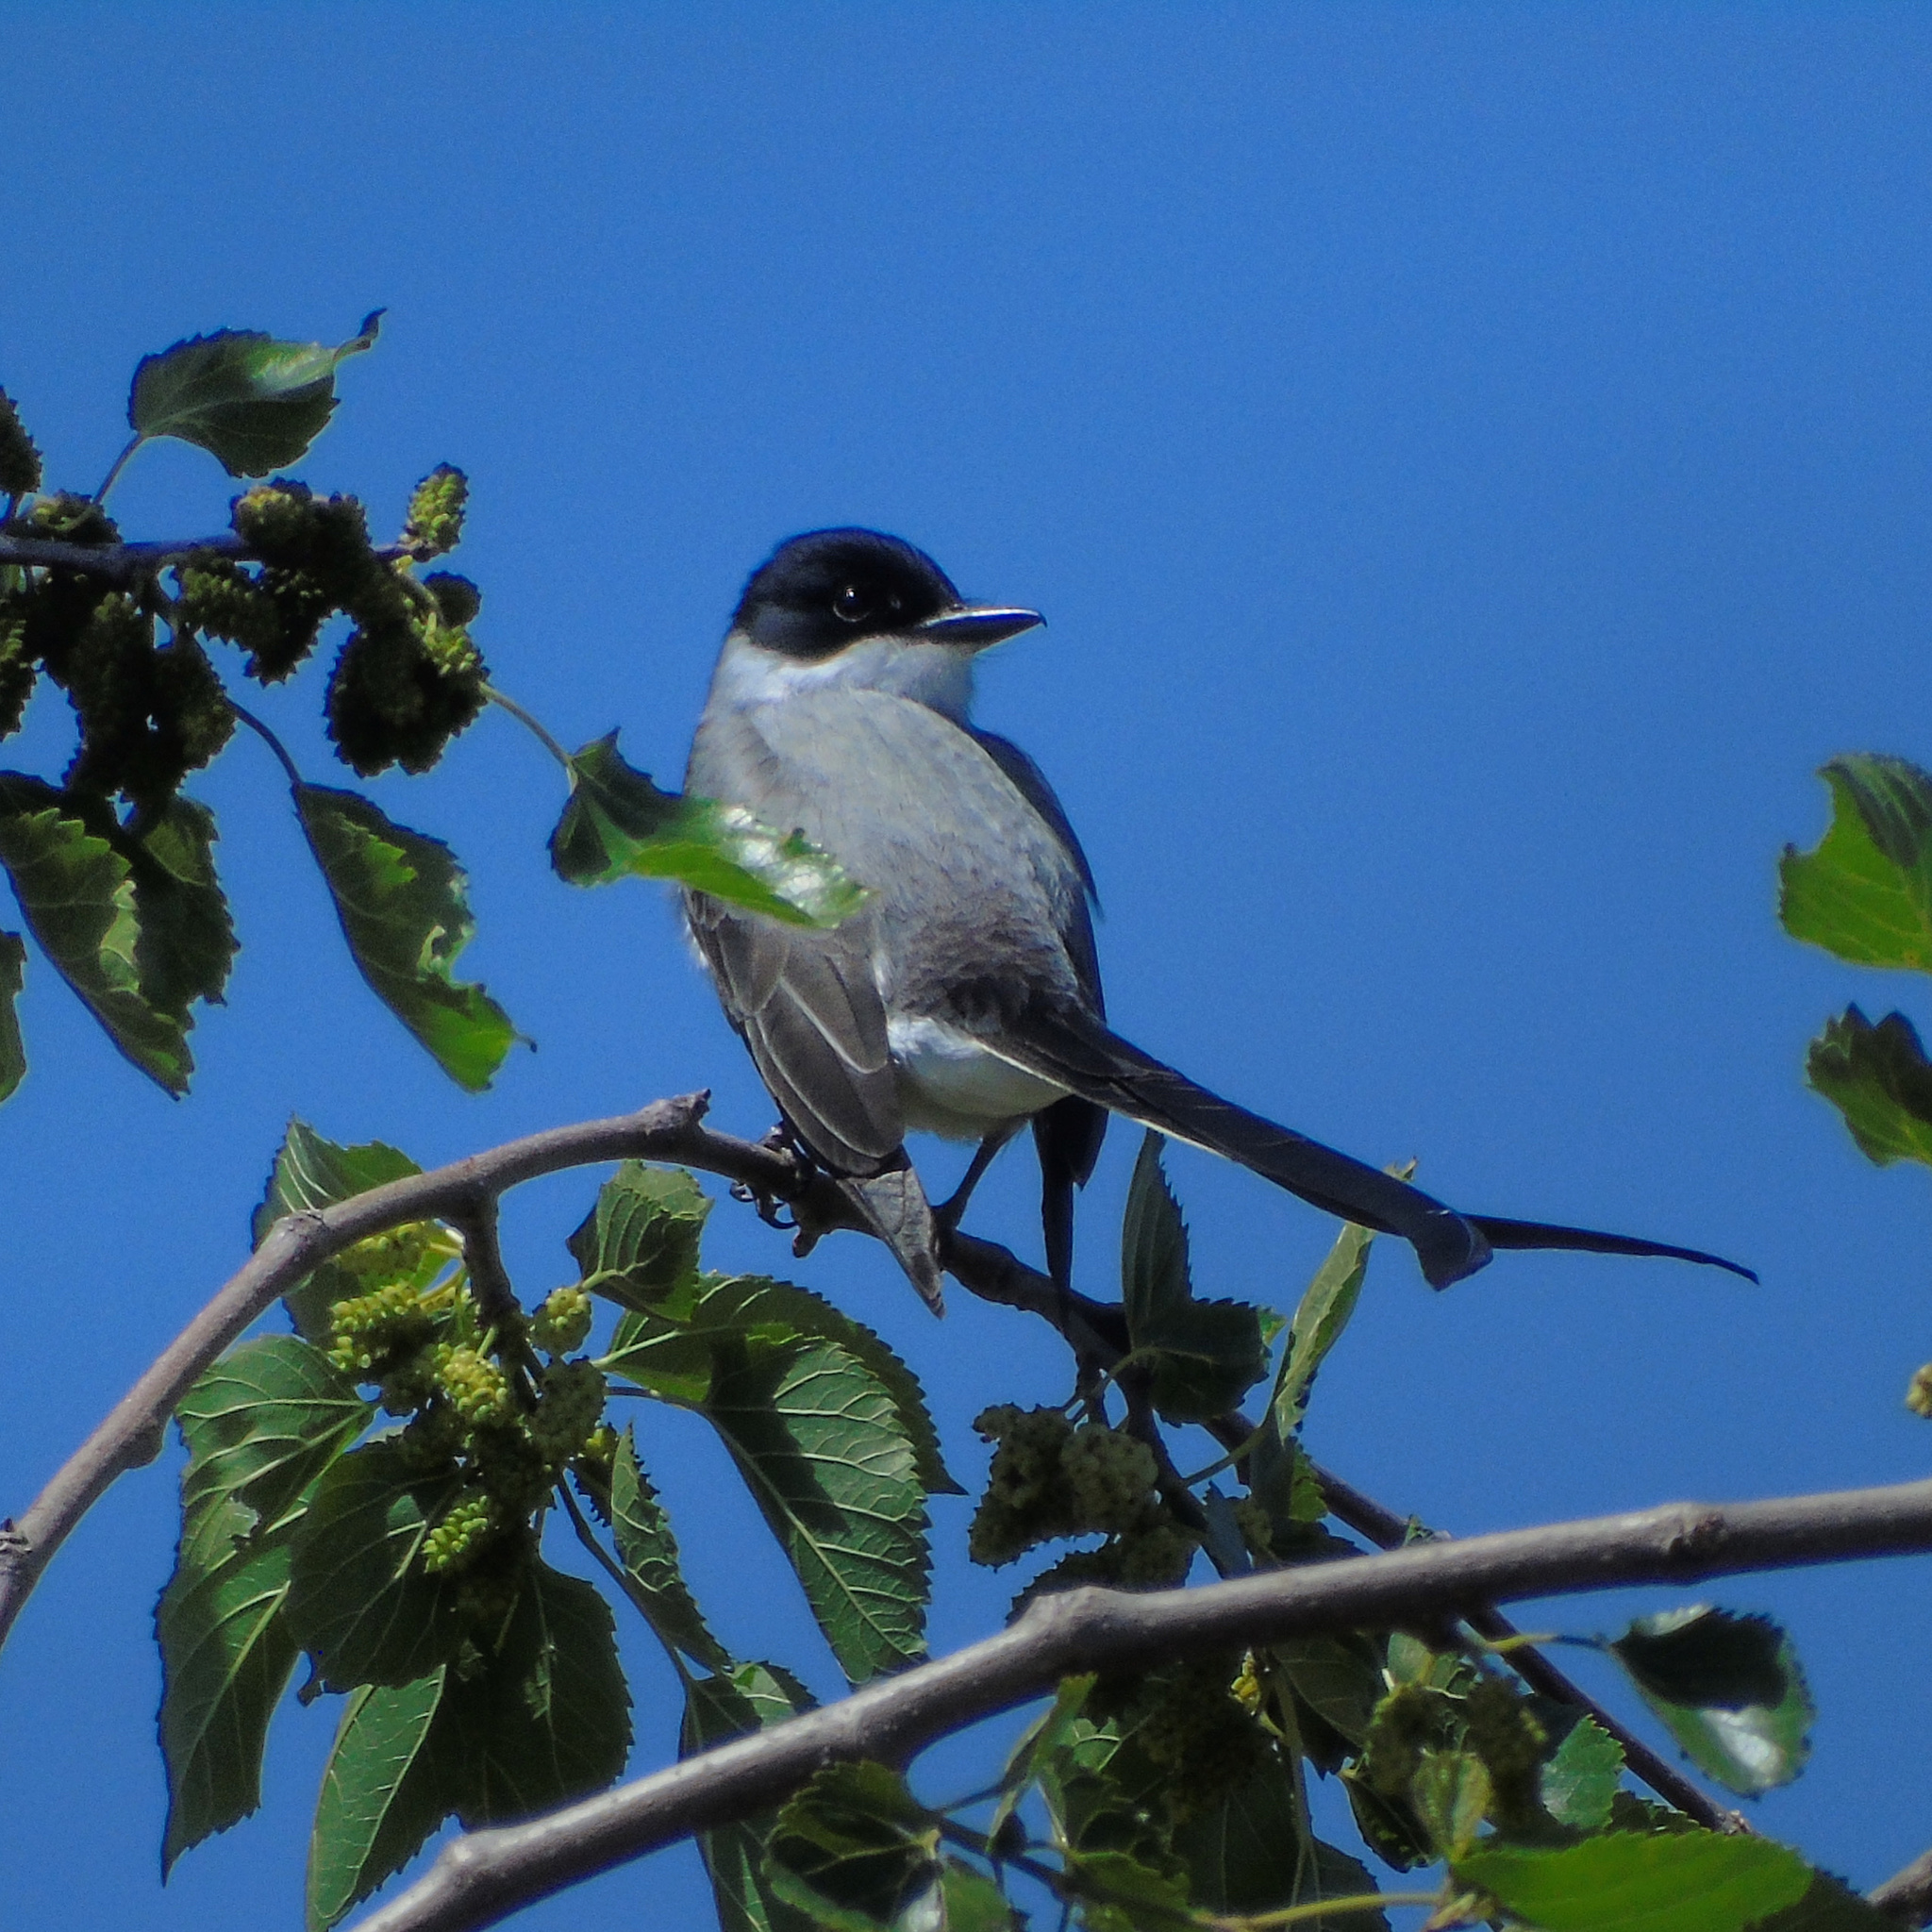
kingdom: Animalia
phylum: Chordata
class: Aves
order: Passeriformes
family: Tyrannidae
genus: Tyrannus
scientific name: Tyrannus savana
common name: Fork-tailed flycatcher
